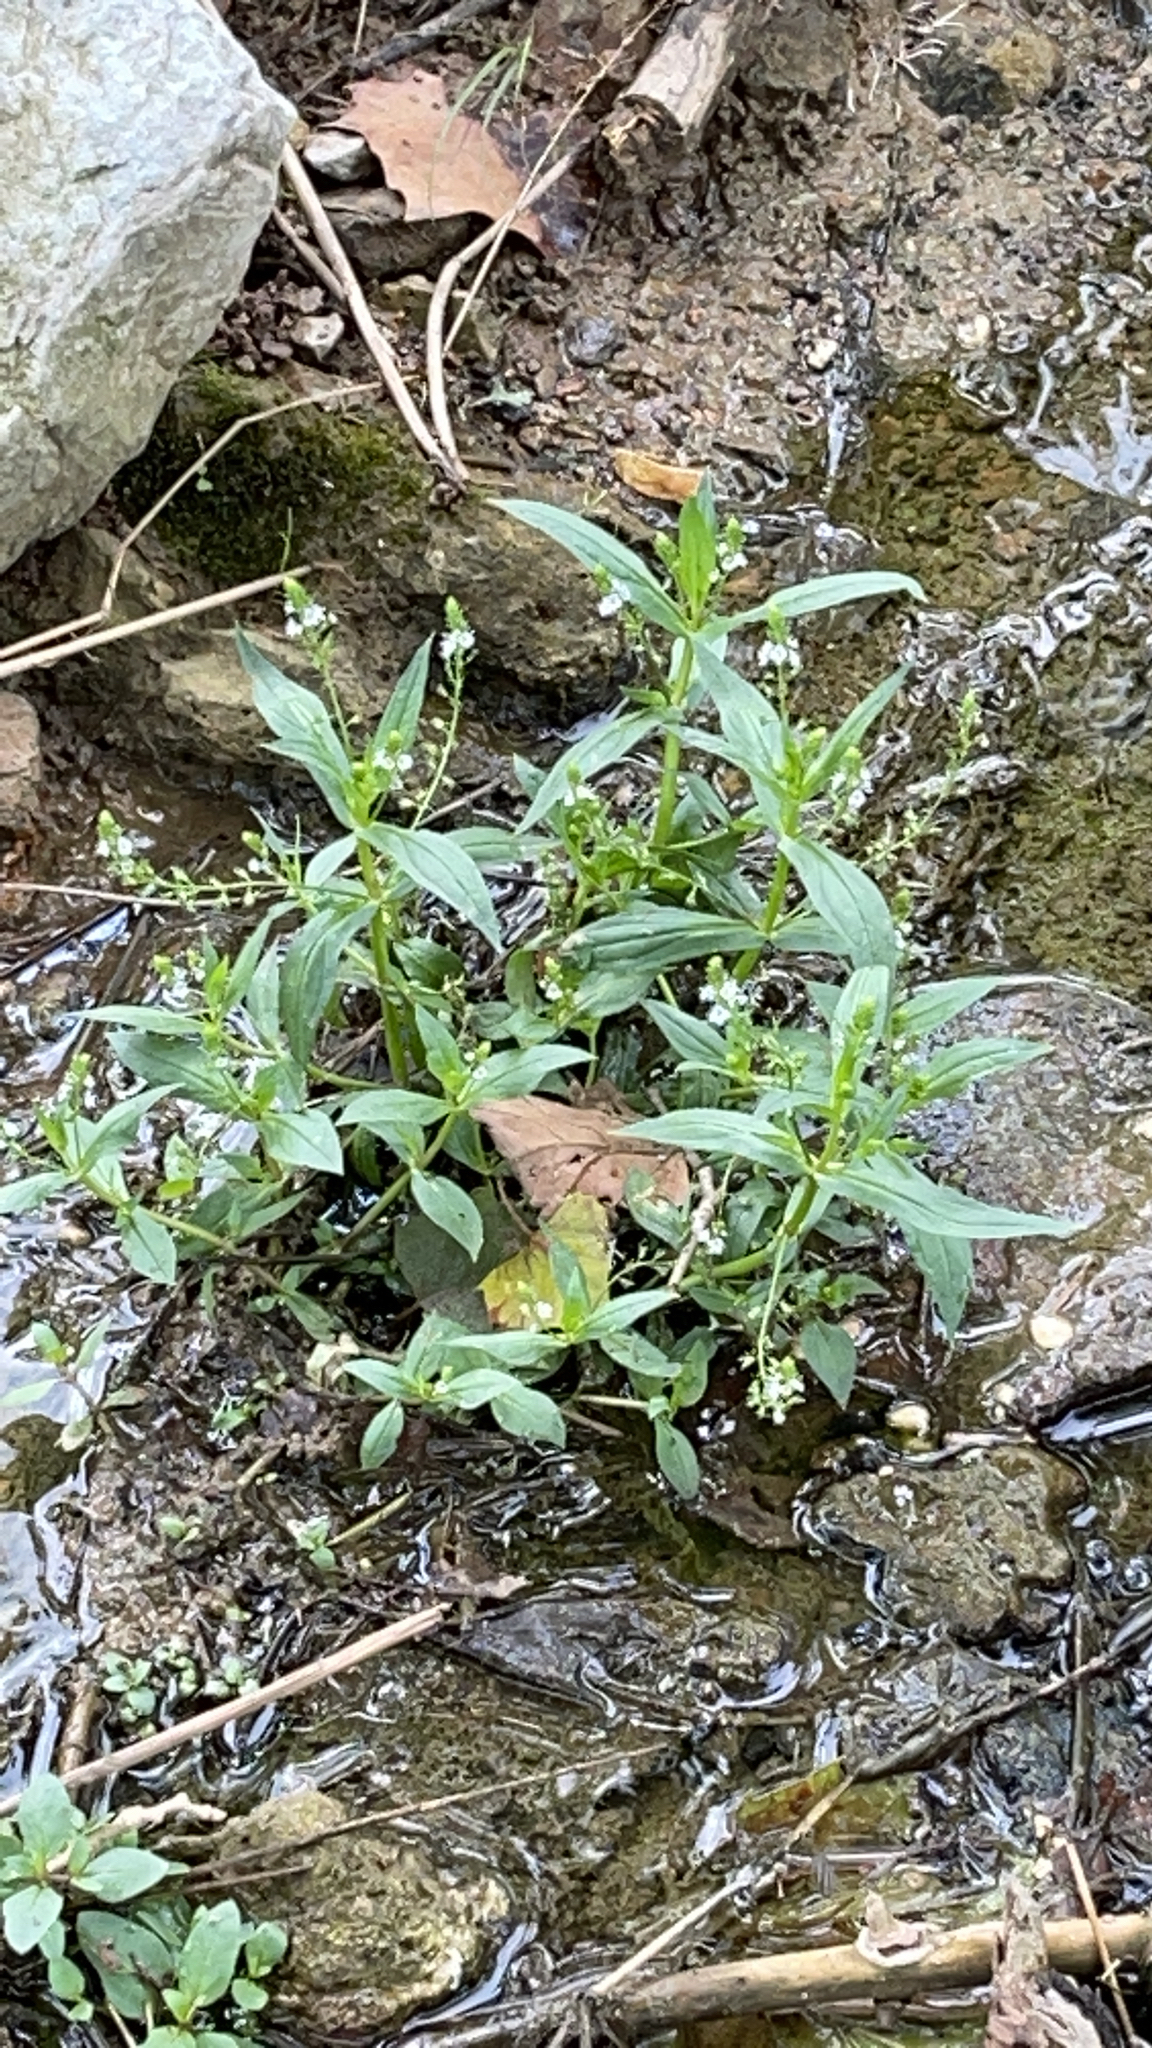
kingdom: Plantae
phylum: Tracheophyta
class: Magnoliopsida
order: Lamiales
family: Plantaginaceae
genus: Veronica
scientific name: Veronica catenata
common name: Pink water-speedwell
